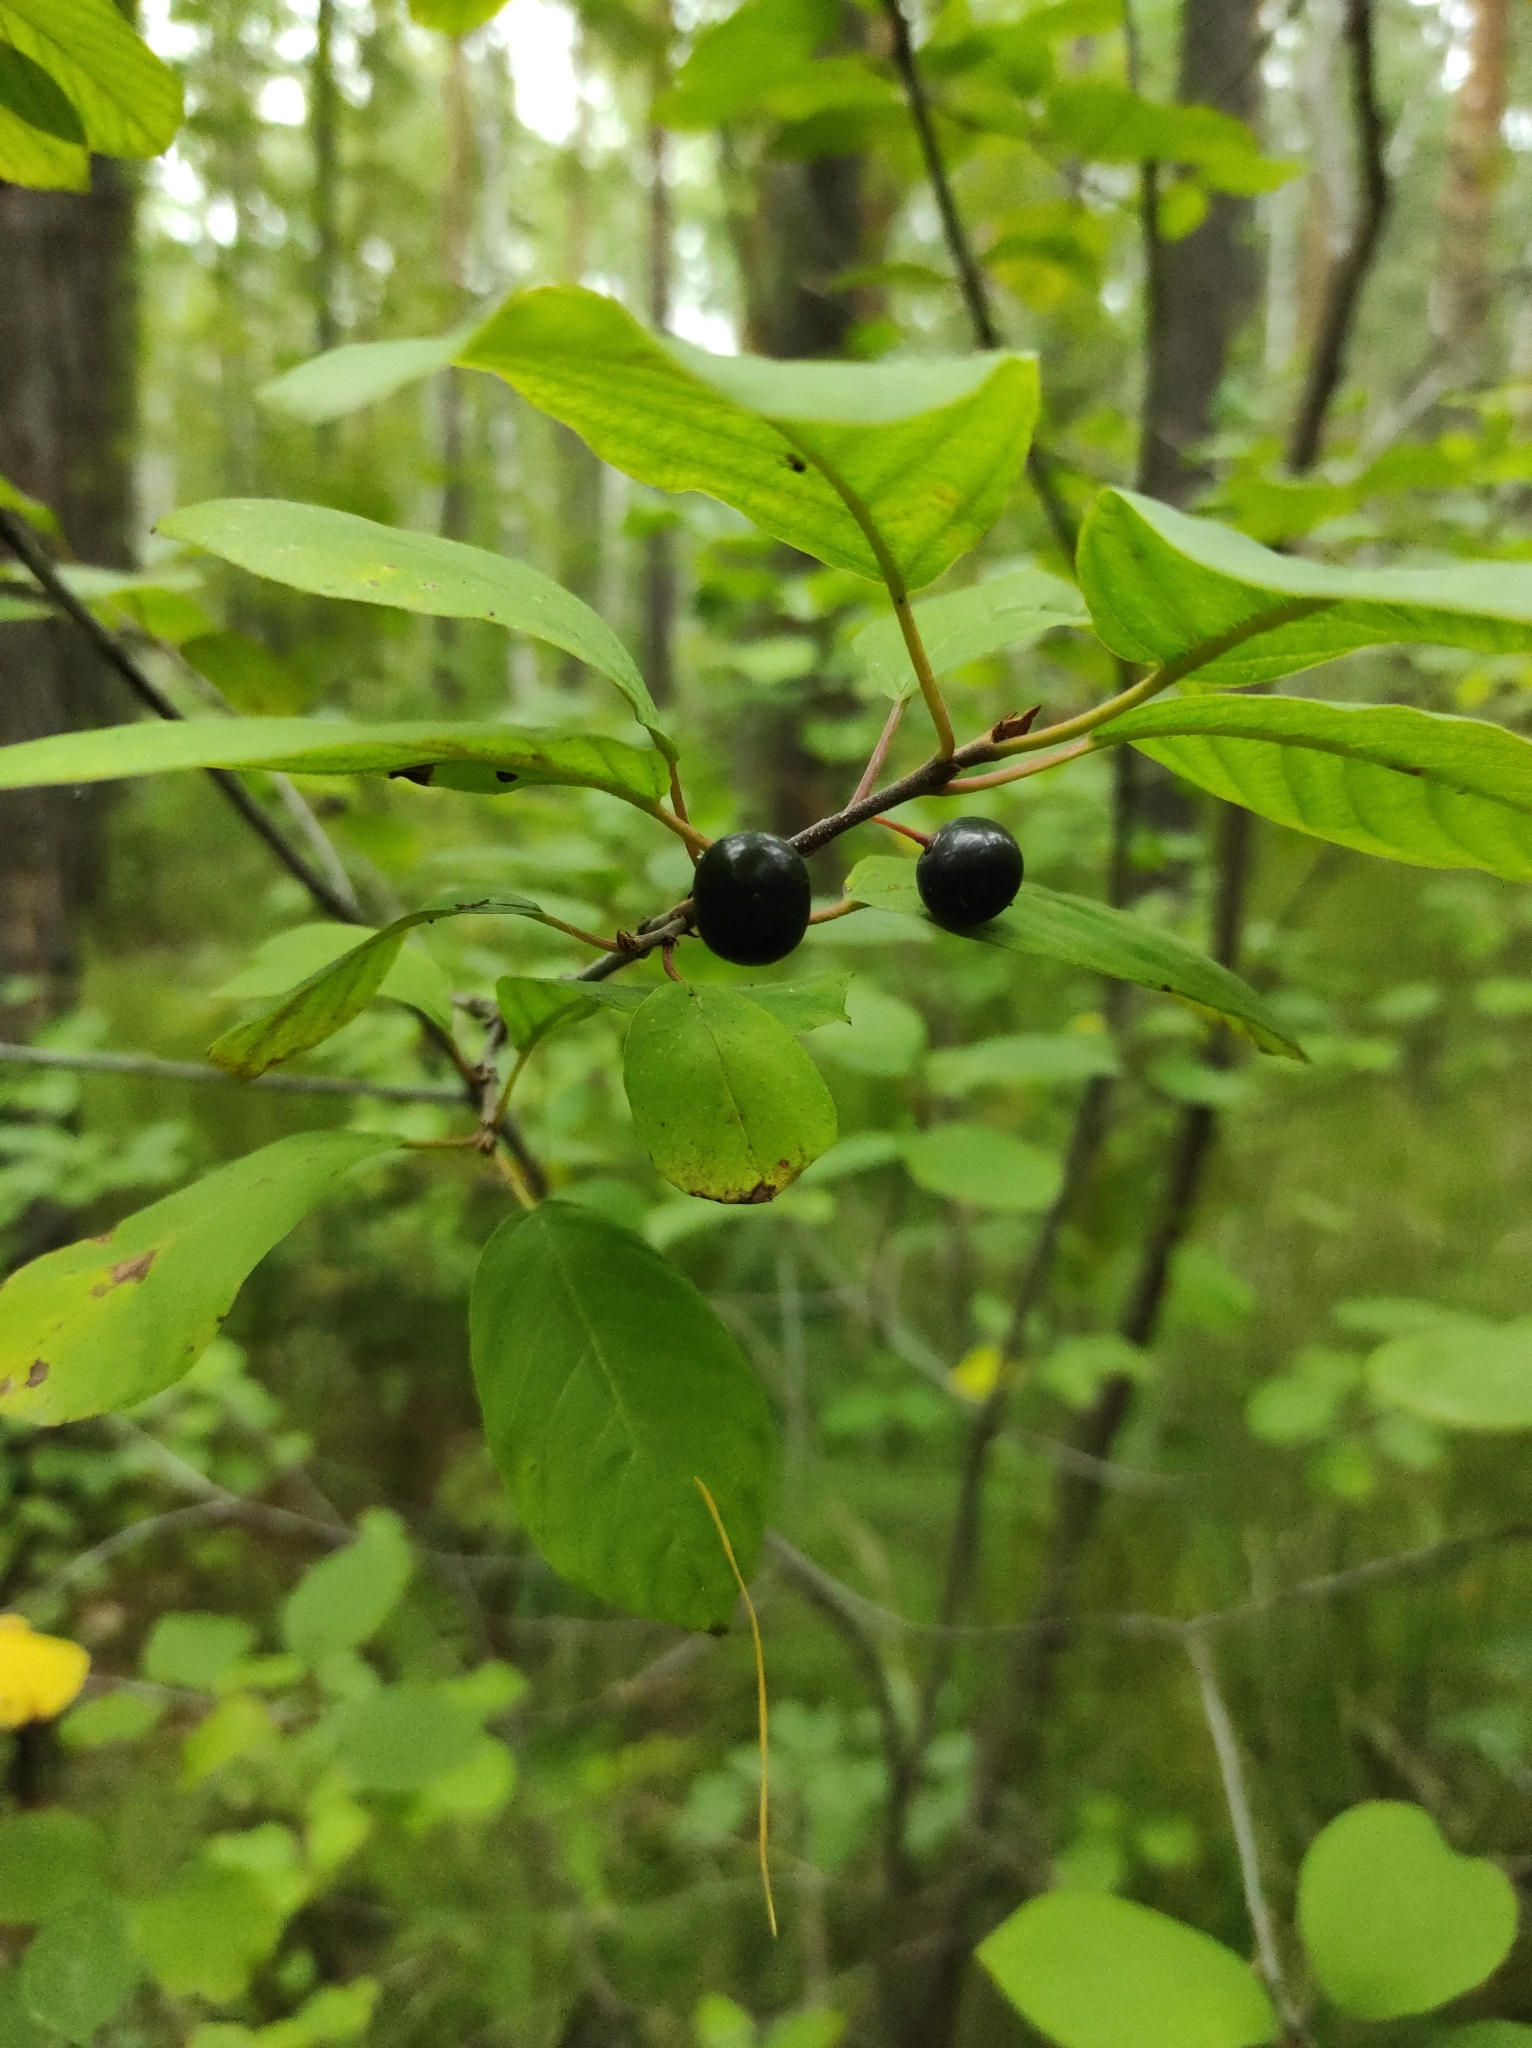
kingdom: Plantae
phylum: Tracheophyta
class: Magnoliopsida
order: Rosales
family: Rhamnaceae
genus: Frangula
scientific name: Frangula alnus
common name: Alder buckthorn
